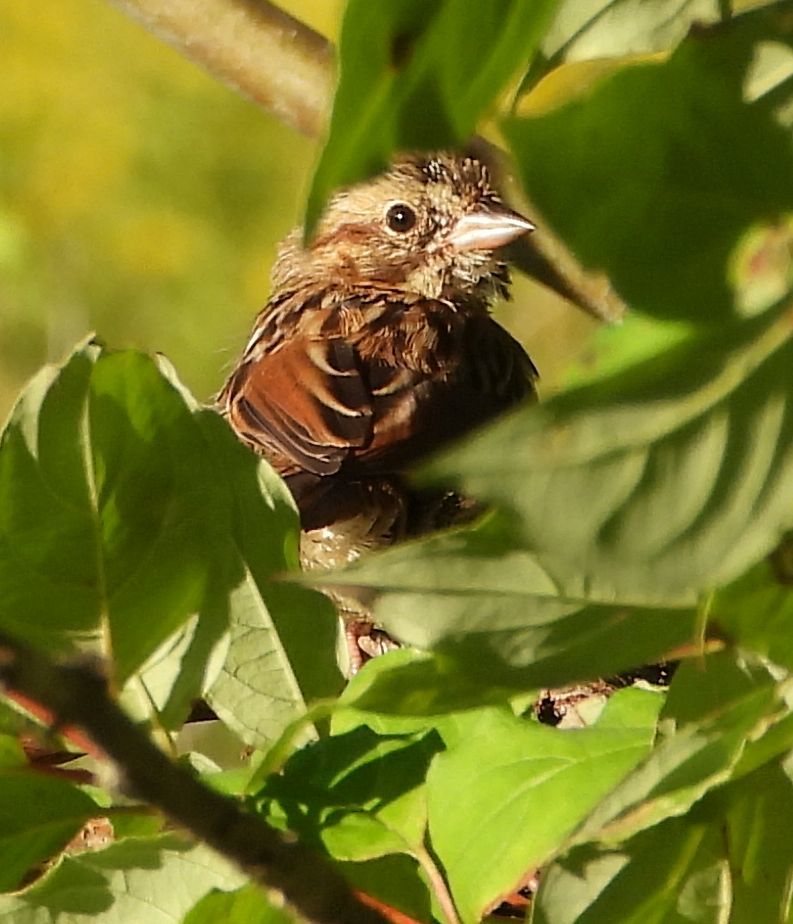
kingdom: Animalia
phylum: Chordata
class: Aves
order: Passeriformes
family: Passerellidae
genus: Melospiza
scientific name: Melospiza melodia
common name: Song sparrow
